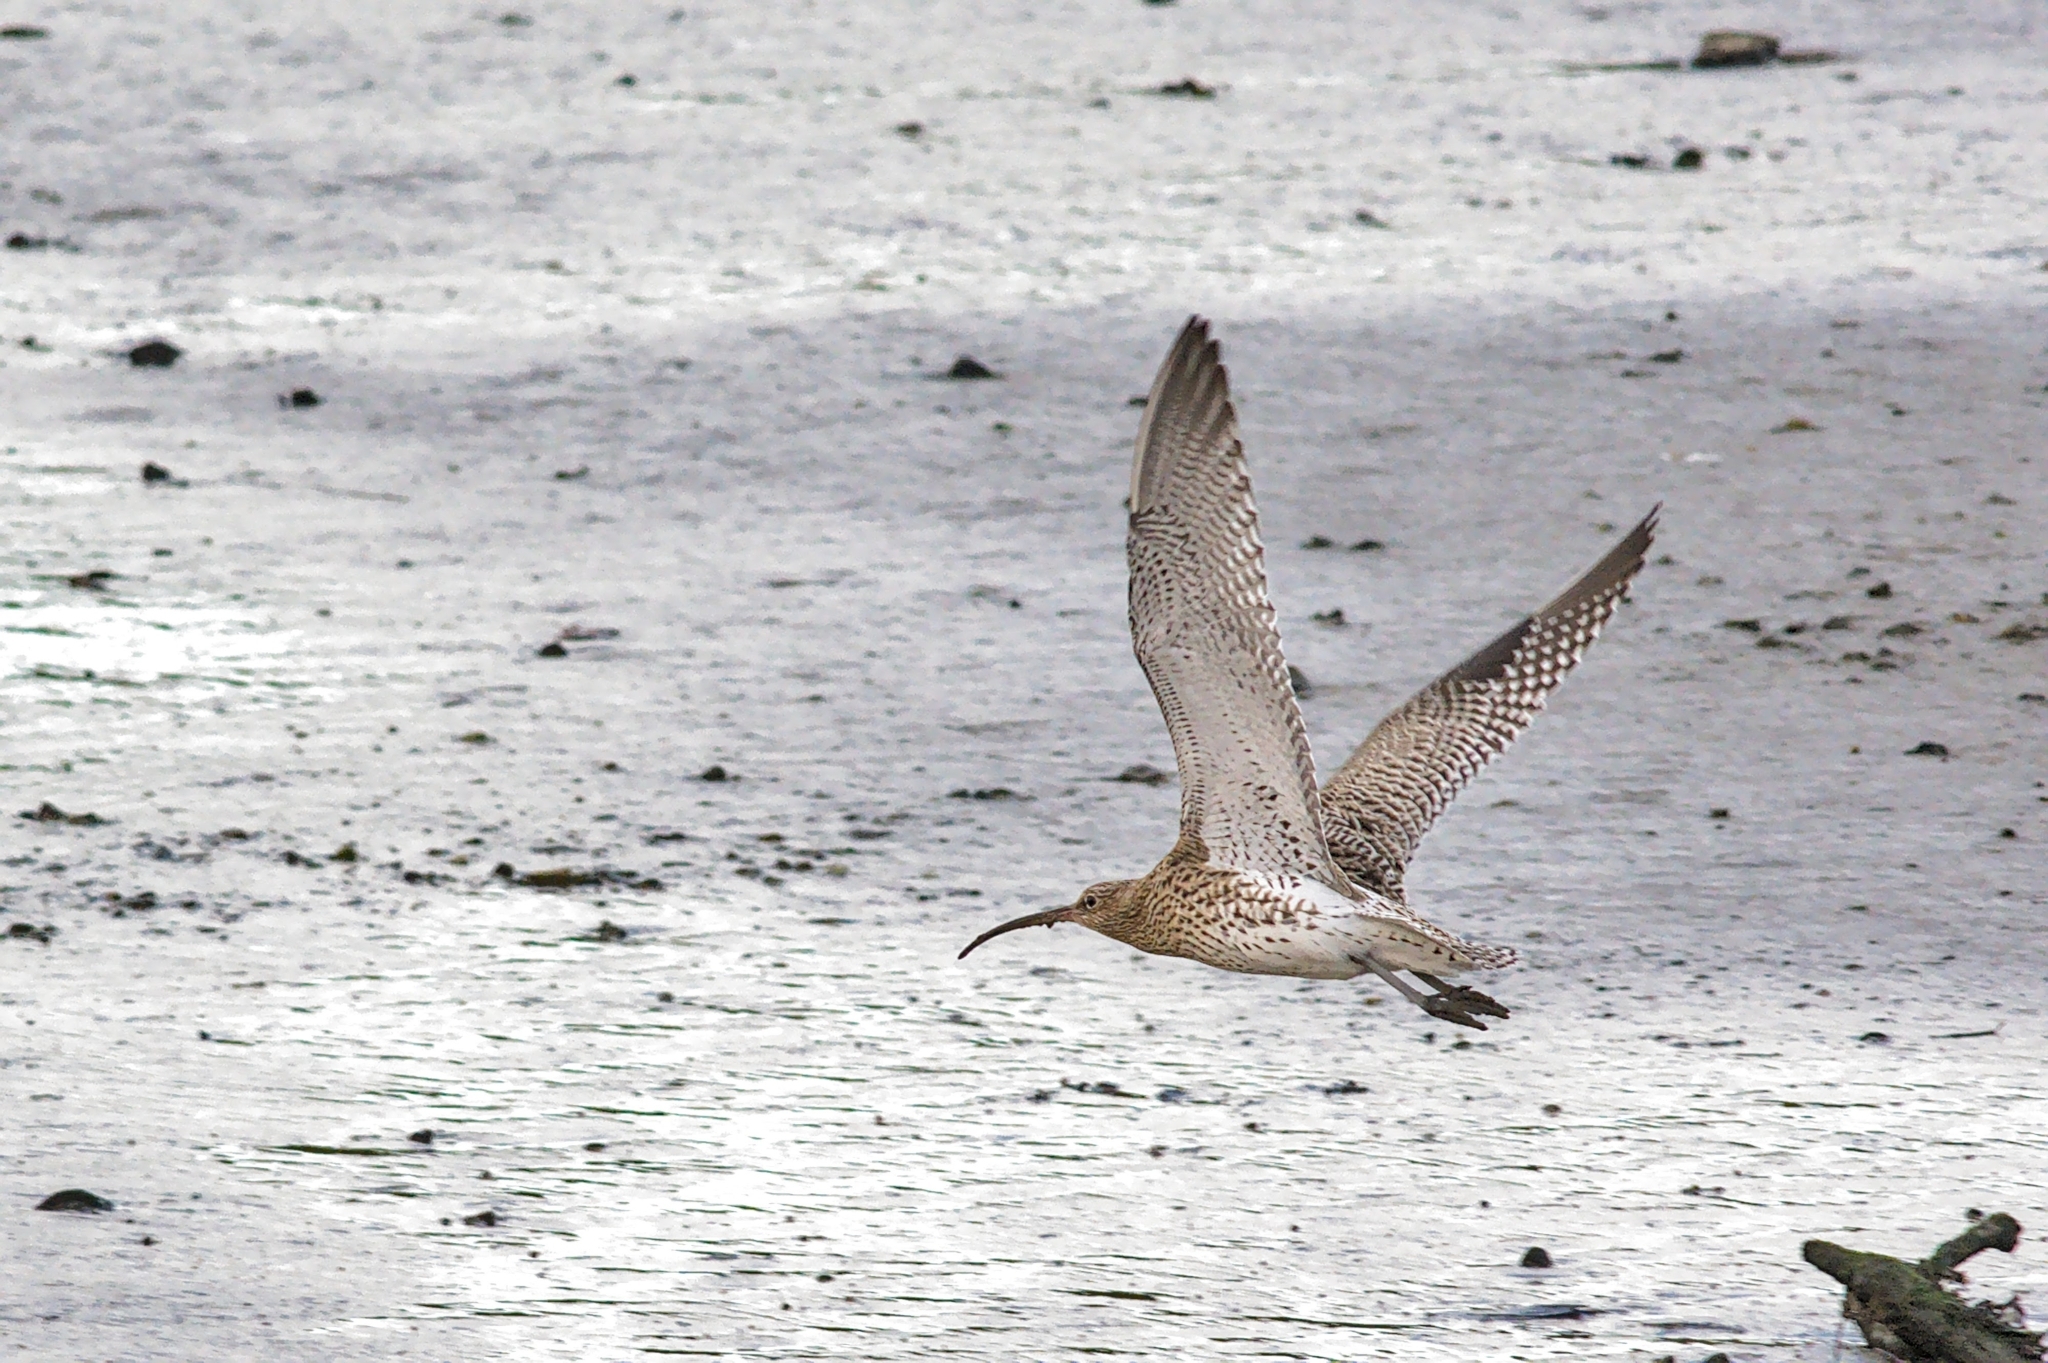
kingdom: Animalia
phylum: Chordata
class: Aves
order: Charadriiformes
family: Scolopacidae
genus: Numenius
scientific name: Numenius arquata
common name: Eurasian curlew
